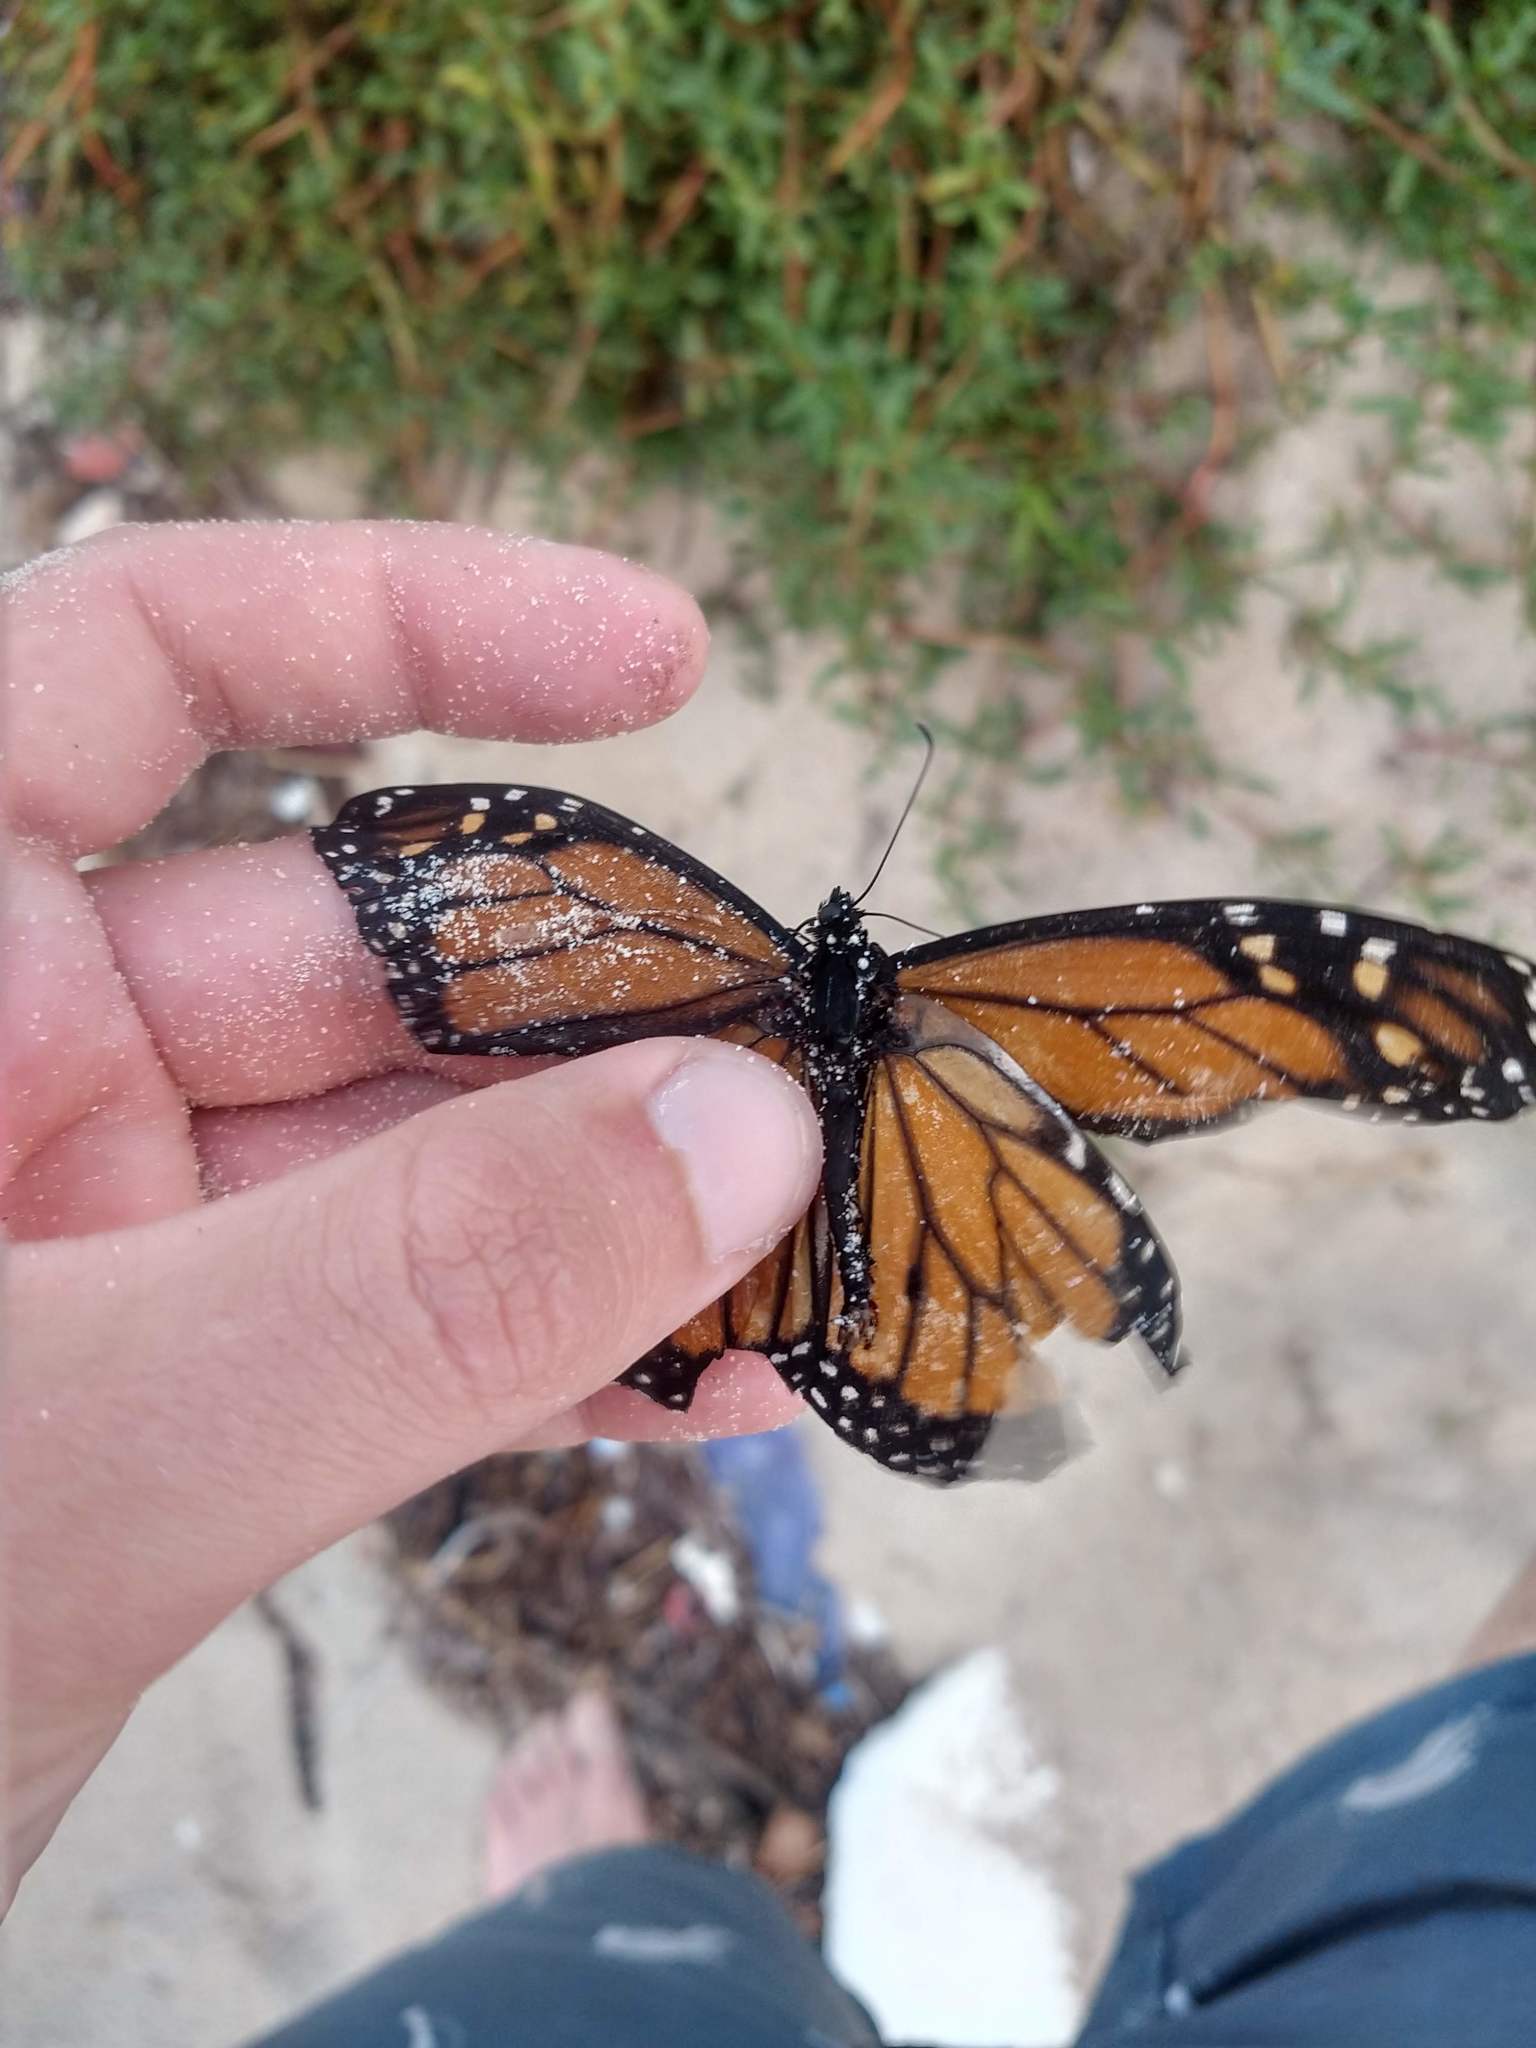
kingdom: Animalia
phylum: Arthropoda
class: Insecta
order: Lepidoptera
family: Nymphalidae
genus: Danaus
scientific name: Danaus plexippus
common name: Monarch
